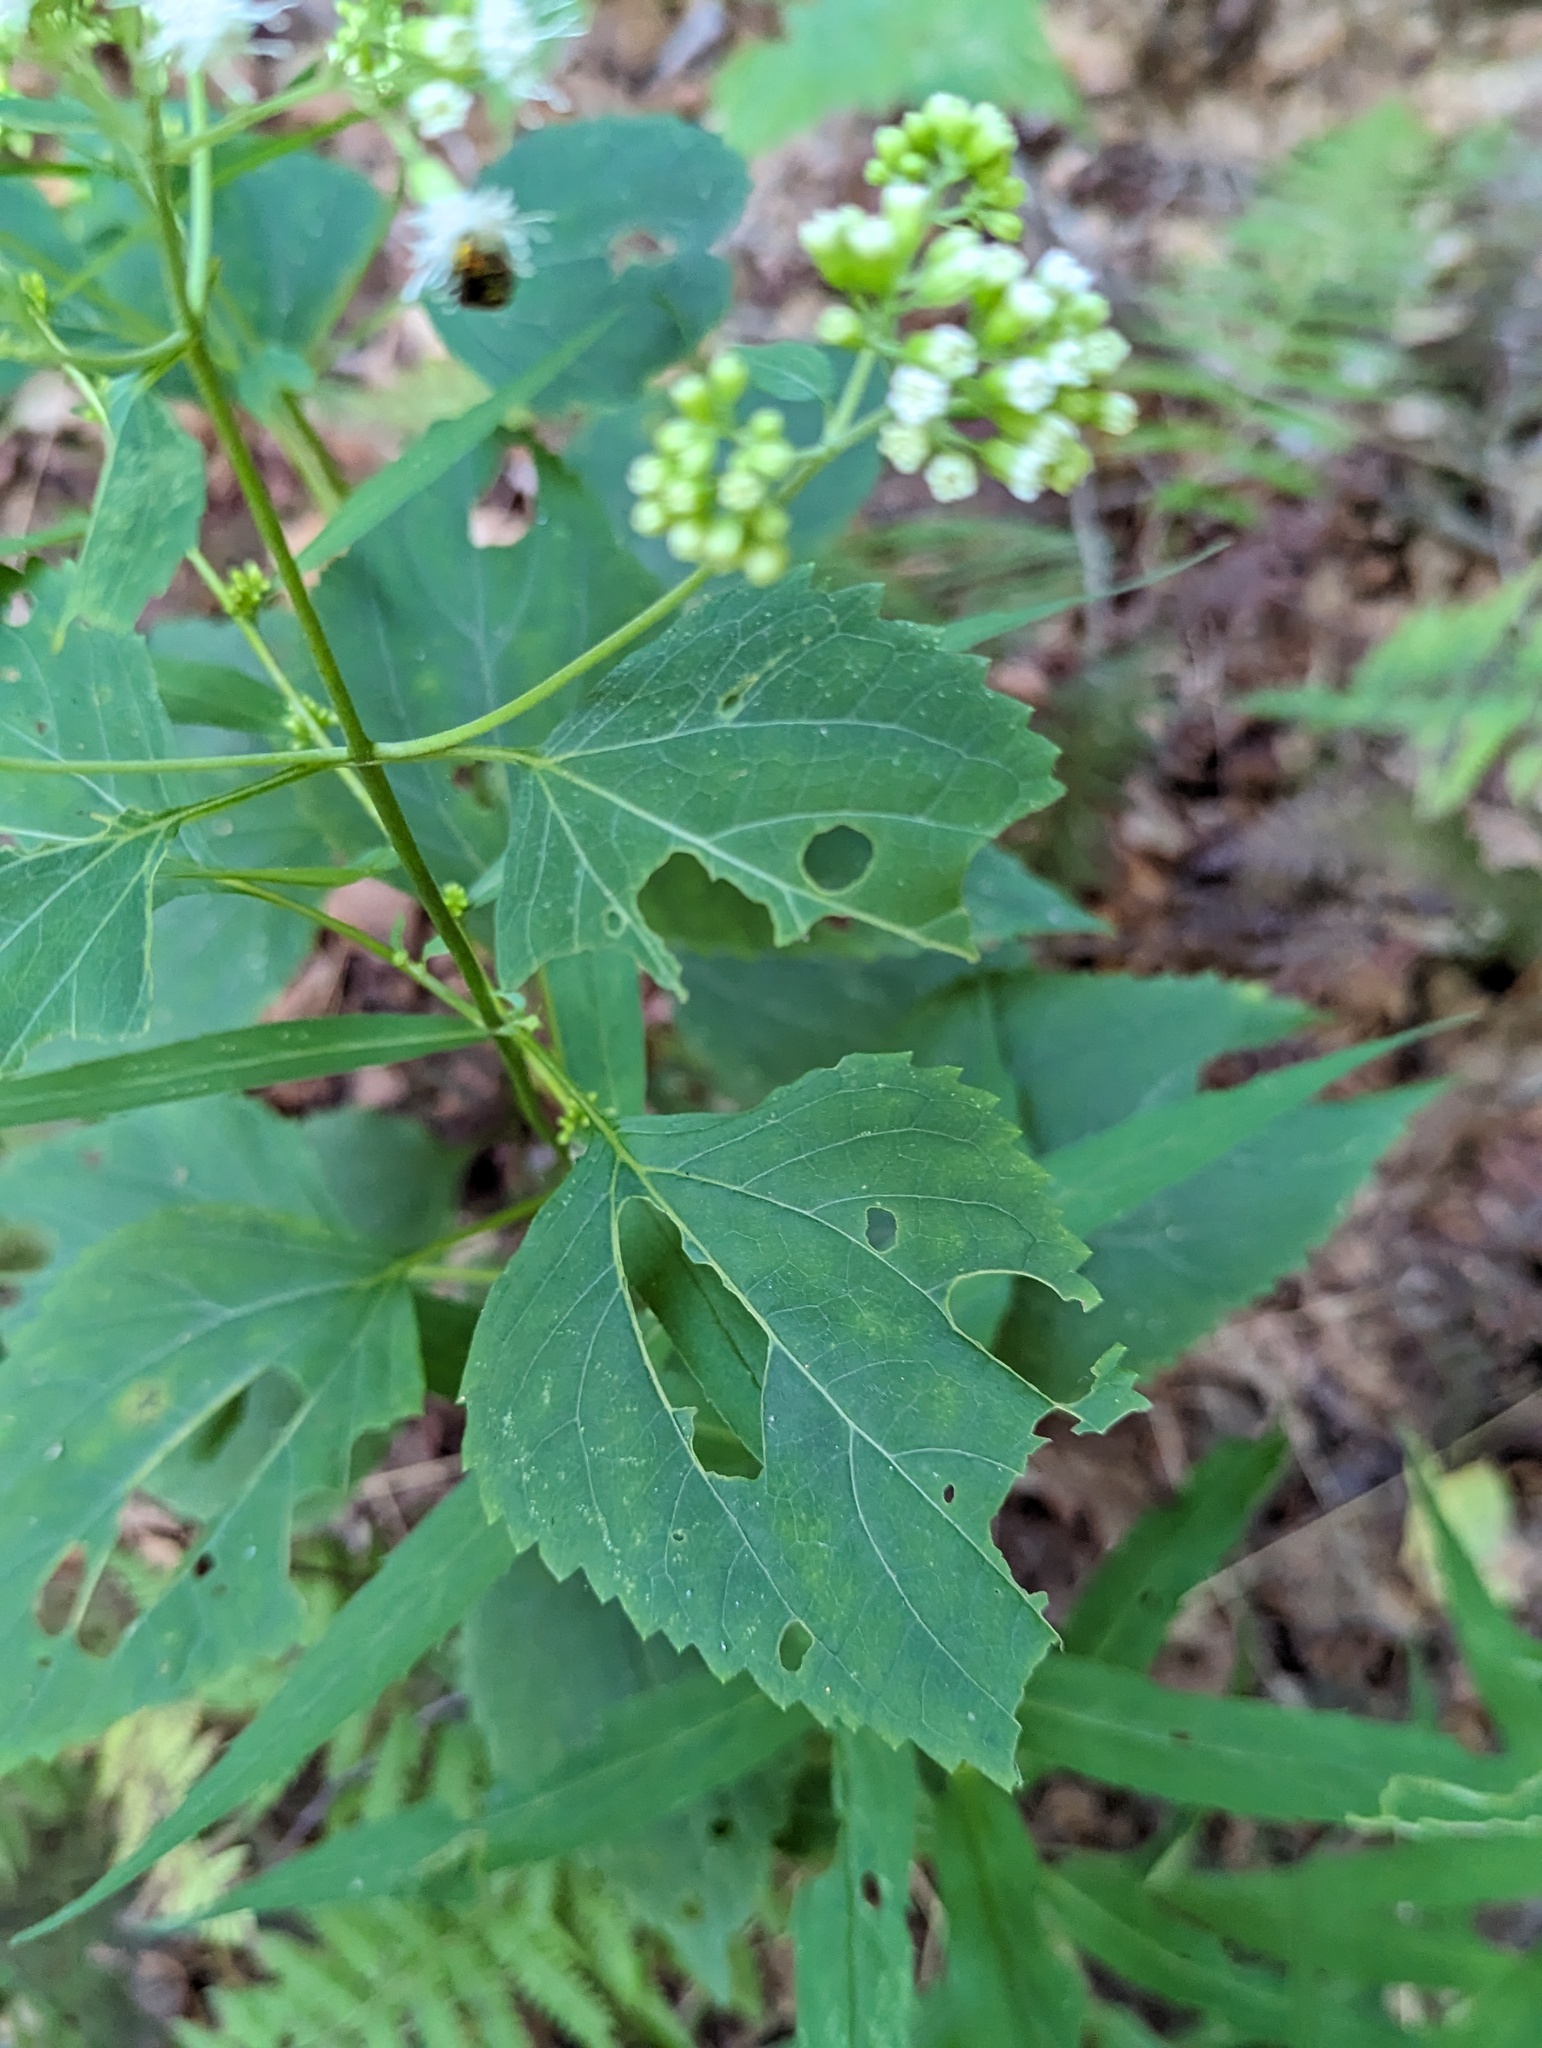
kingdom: Plantae
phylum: Tracheophyta
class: Magnoliopsida
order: Asterales
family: Asteraceae
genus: Ageratina
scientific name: Ageratina altissima
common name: White snakeroot
